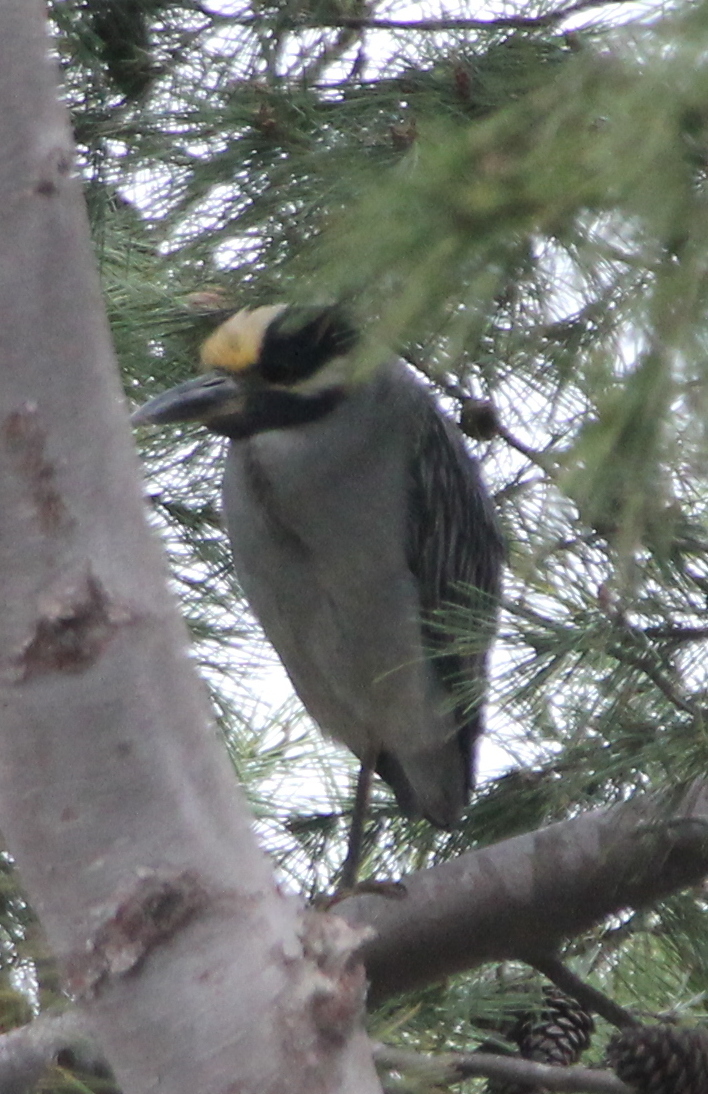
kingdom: Animalia
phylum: Chordata
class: Aves
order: Pelecaniformes
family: Ardeidae
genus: Nyctanassa
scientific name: Nyctanassa violacea
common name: Yellow-crowned night heron
